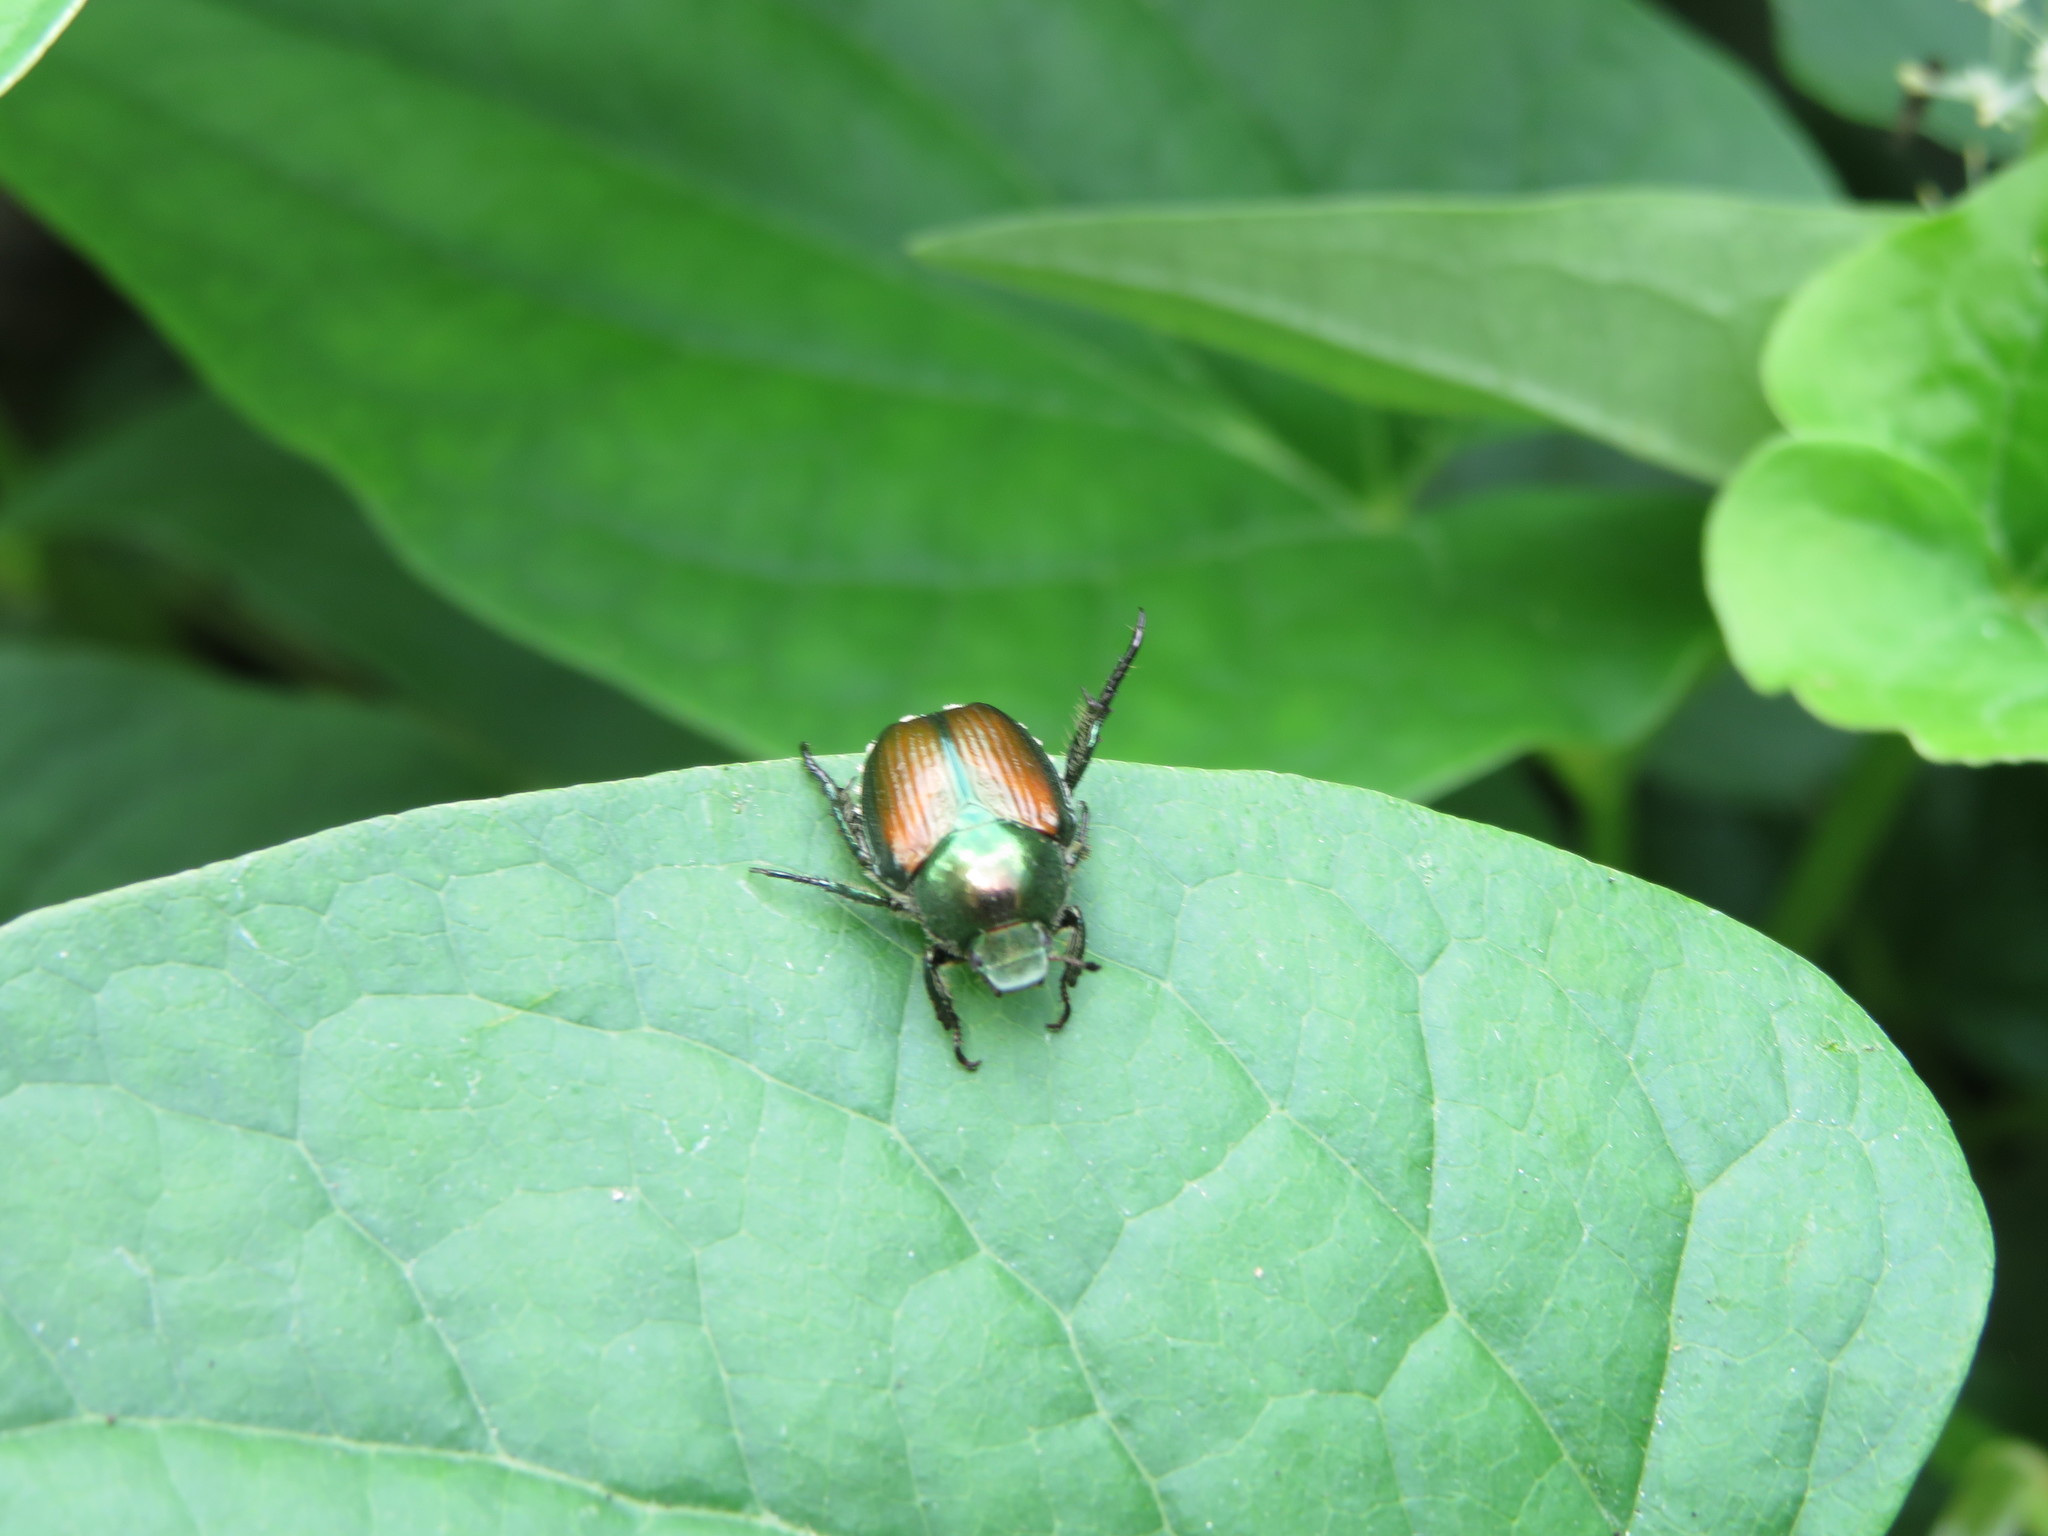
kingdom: Animalia
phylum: Arthropoda
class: Insecta
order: Coleoptera
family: Scarabaeidae
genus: Popillia
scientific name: Popillia japonica
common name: Japanese beetle
